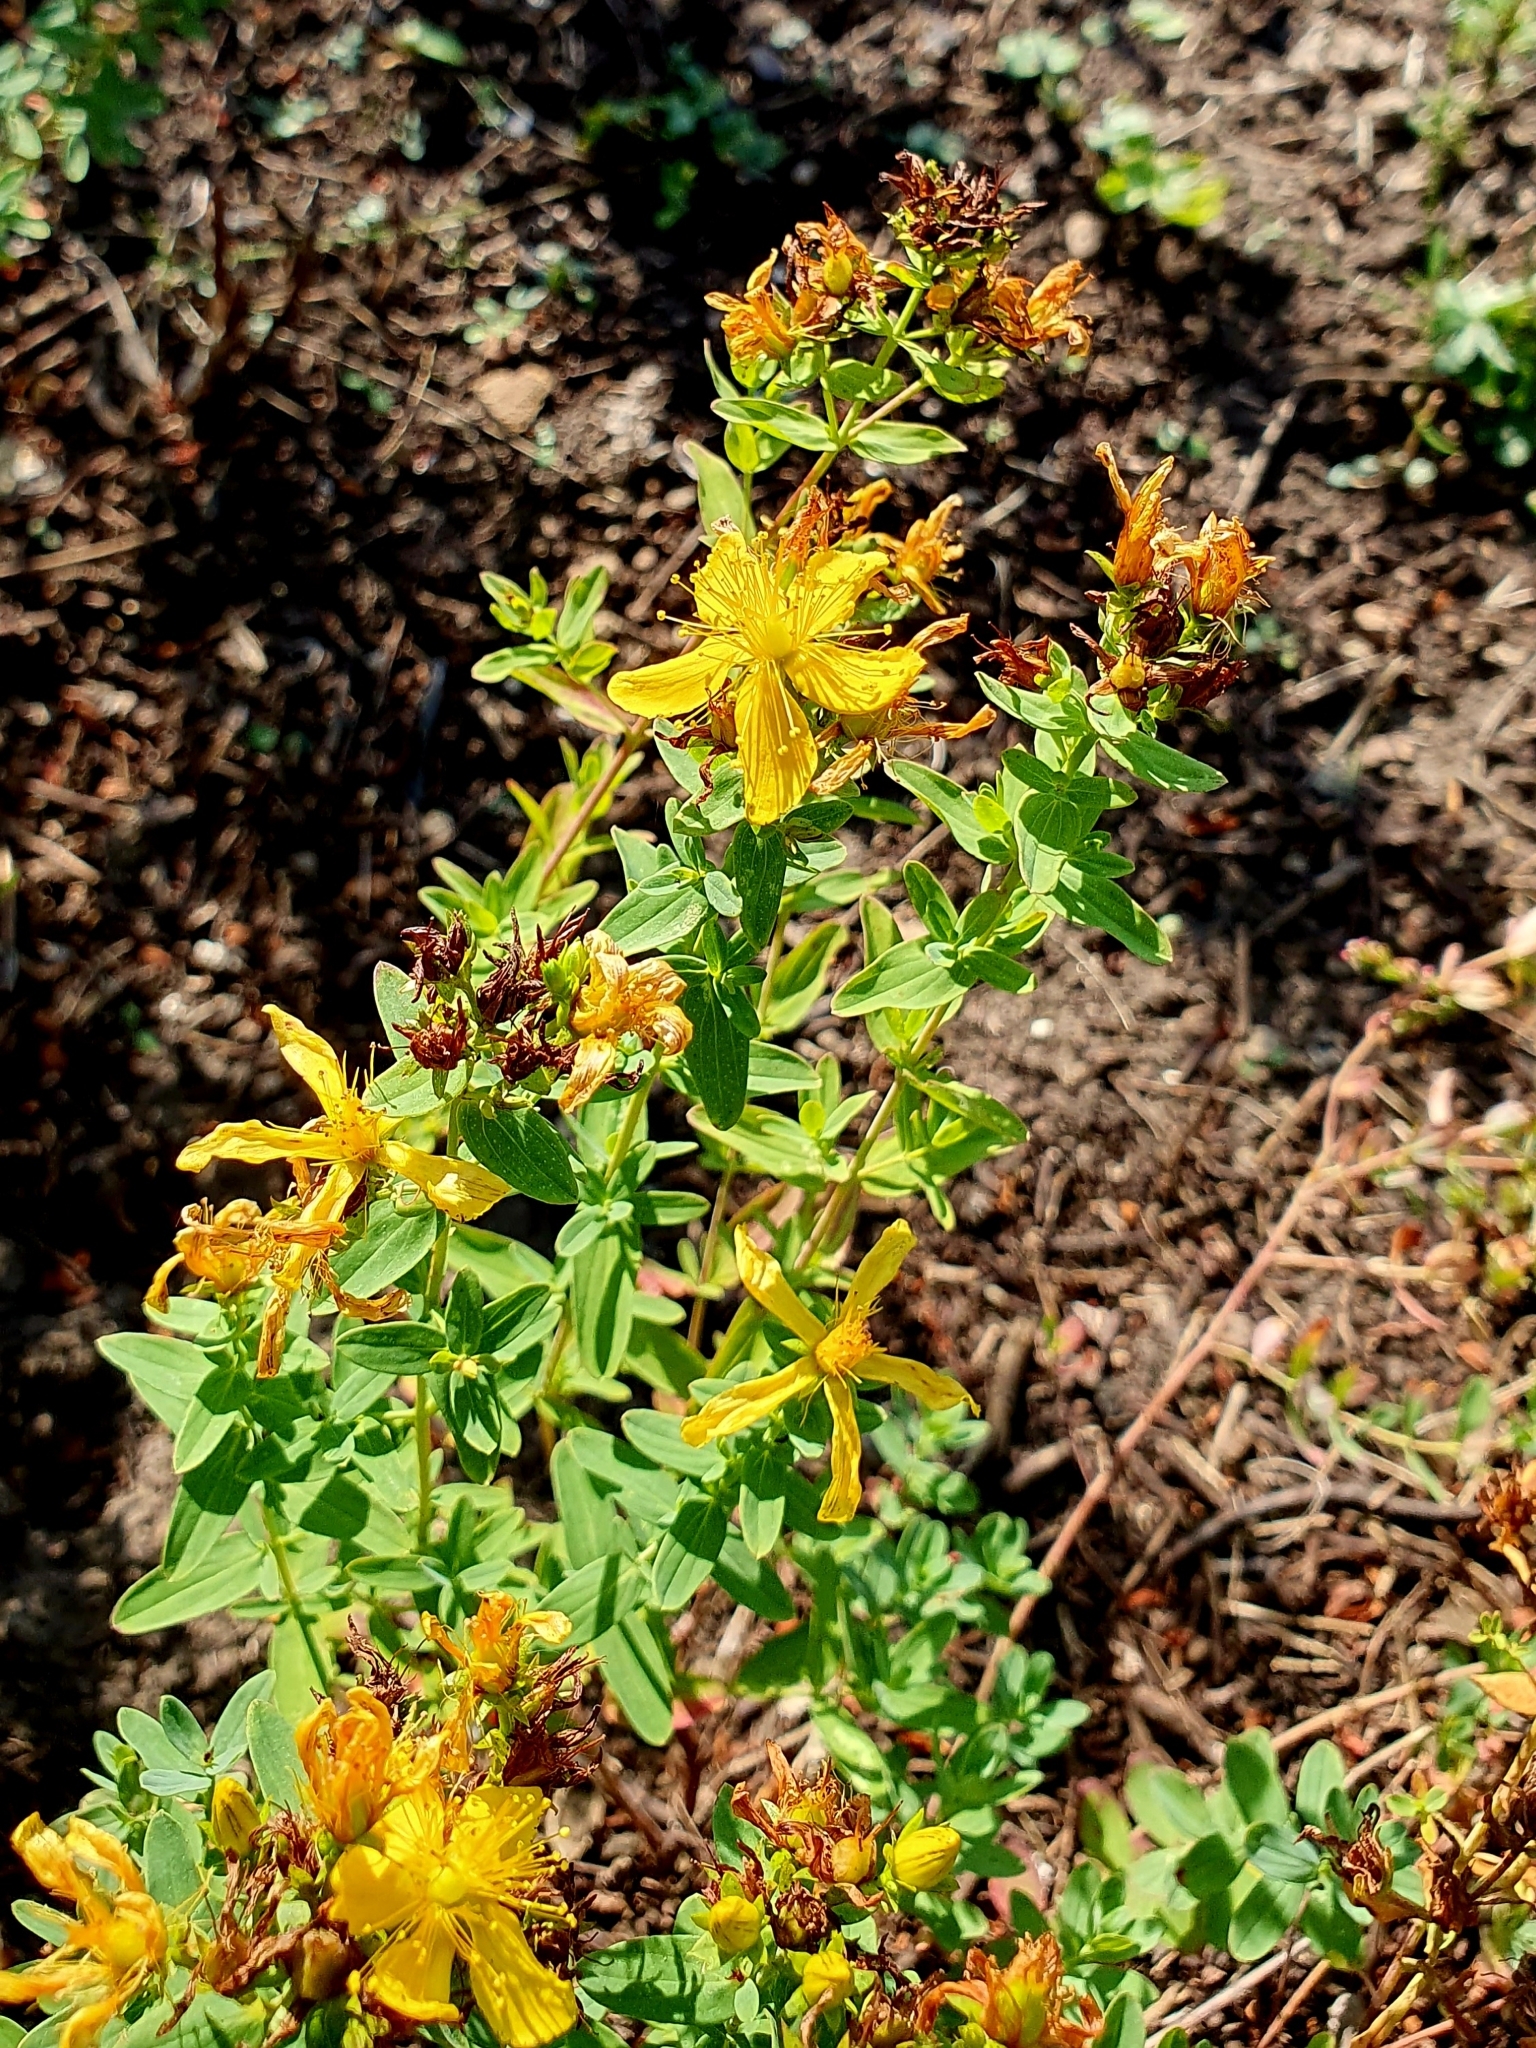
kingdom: Plantae
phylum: Tracheophyta
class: Magnoliopsida
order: Malpighiales
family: Hypericaceae
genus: Hypericum
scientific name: Hypericum perforatum
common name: Common st. johnswort
